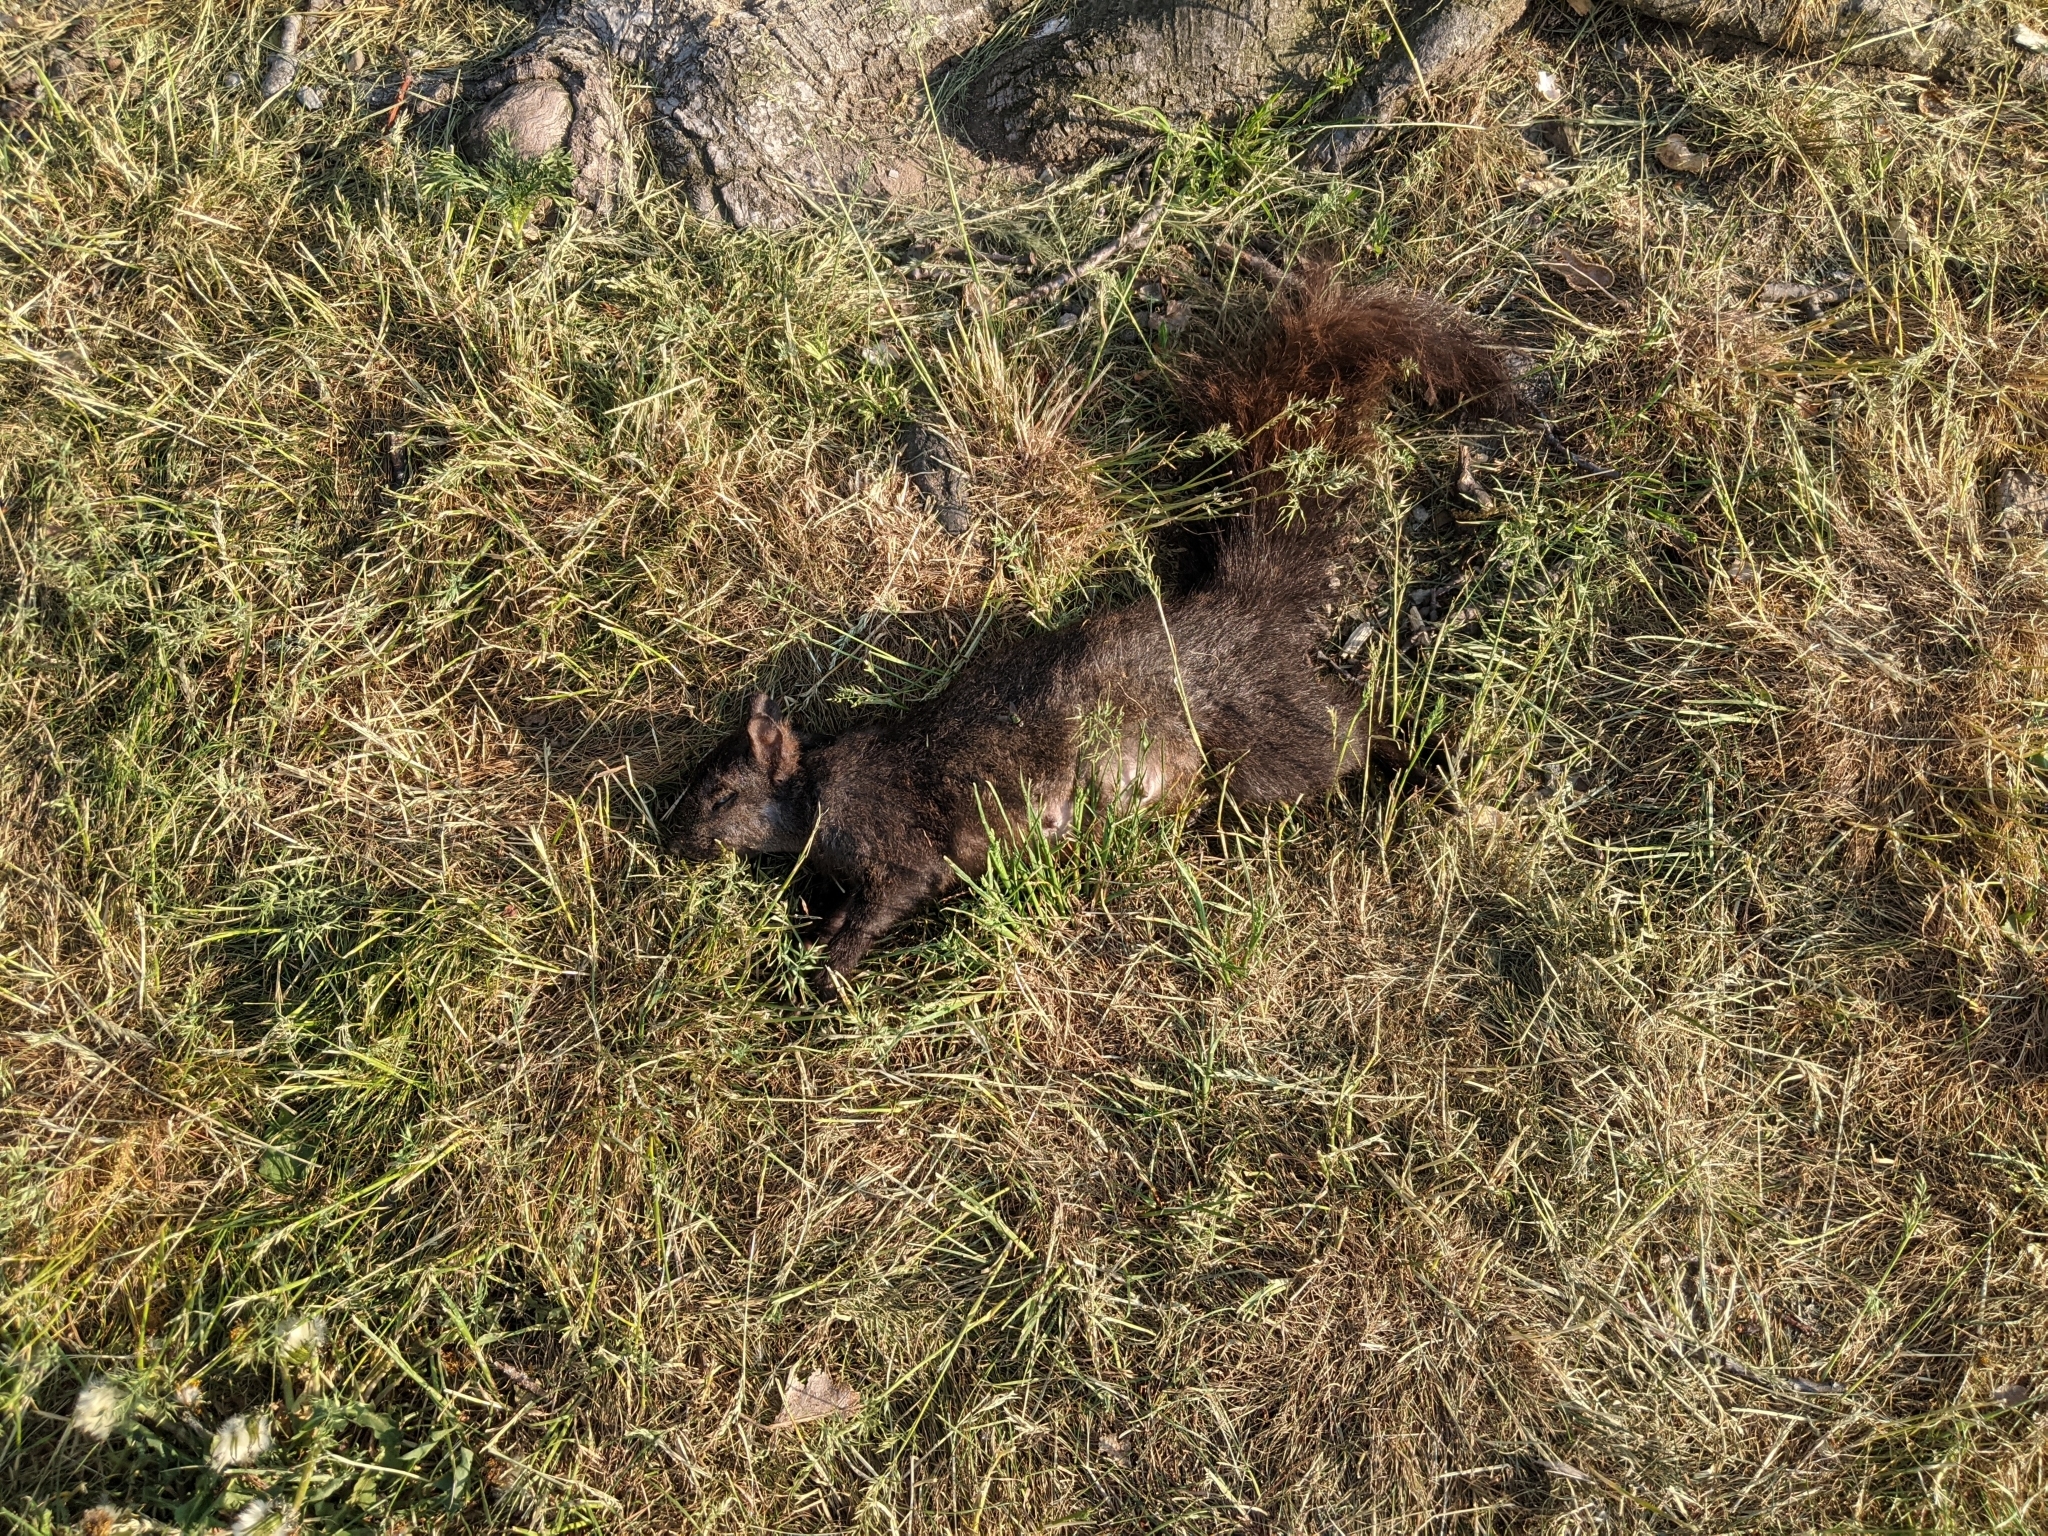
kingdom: Animalia
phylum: Chordata
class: Mammalia
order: Rodentia
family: Sciuridae
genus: Sciurus
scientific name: Sciurus carolinensis
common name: Eastern gray squirrel
